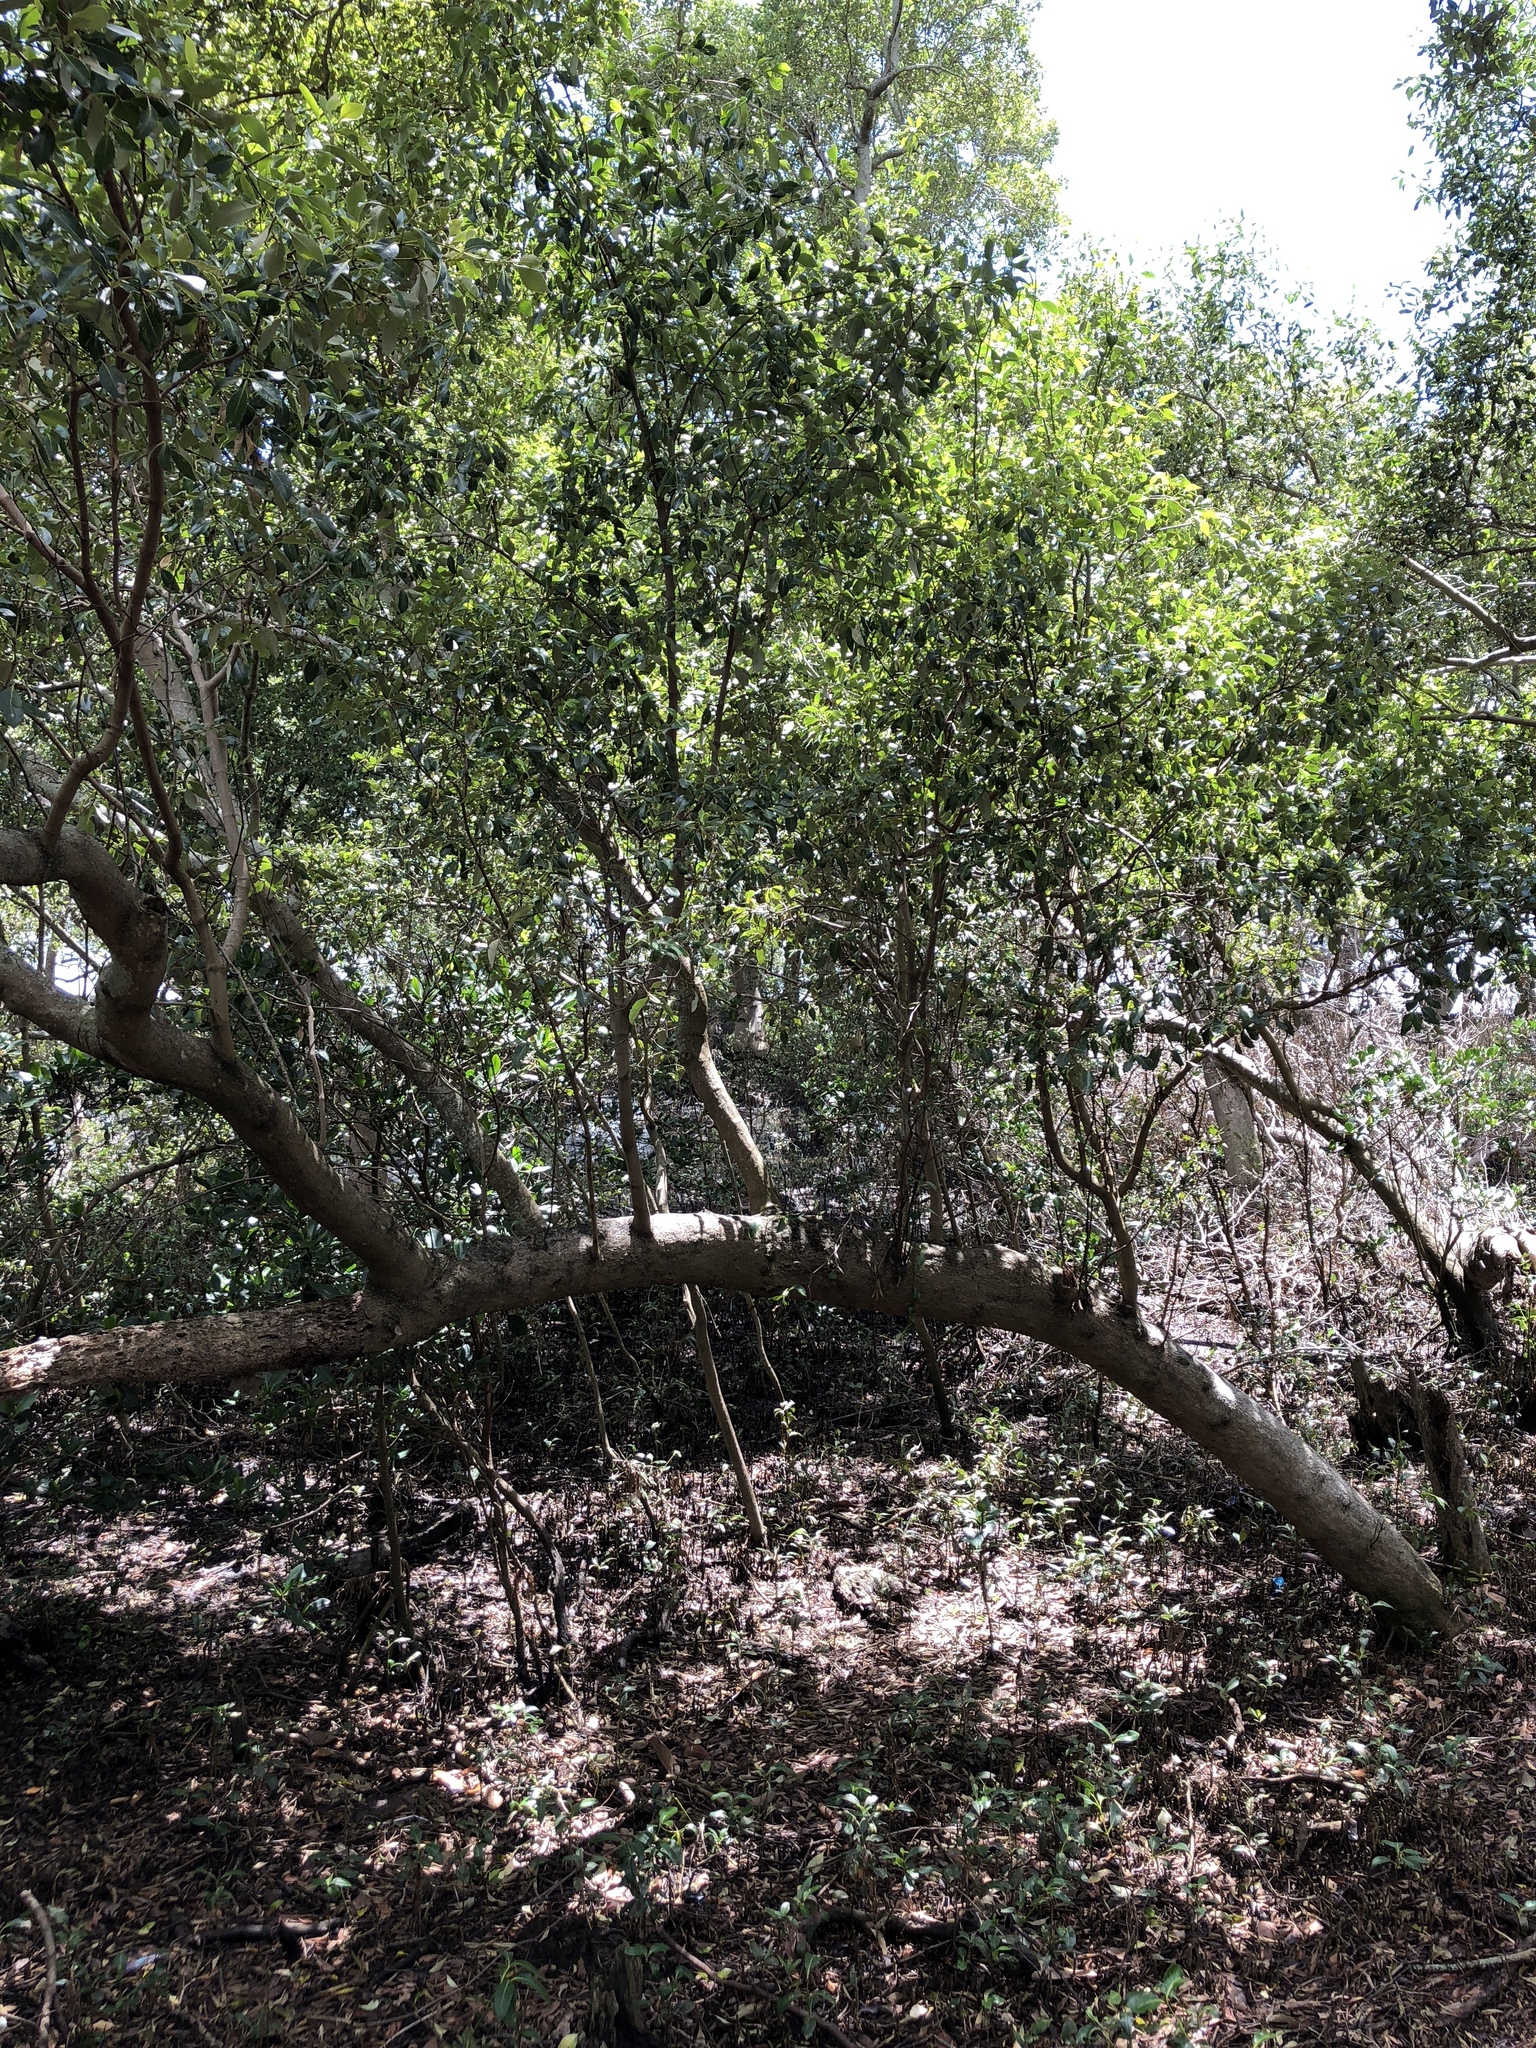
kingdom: Plantae
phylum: Tracheophyta
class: Magnoliopsida
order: Lamiales
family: Acanthaceae
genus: Avicennia
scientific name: Avicennia marina
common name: Gray mangrove
